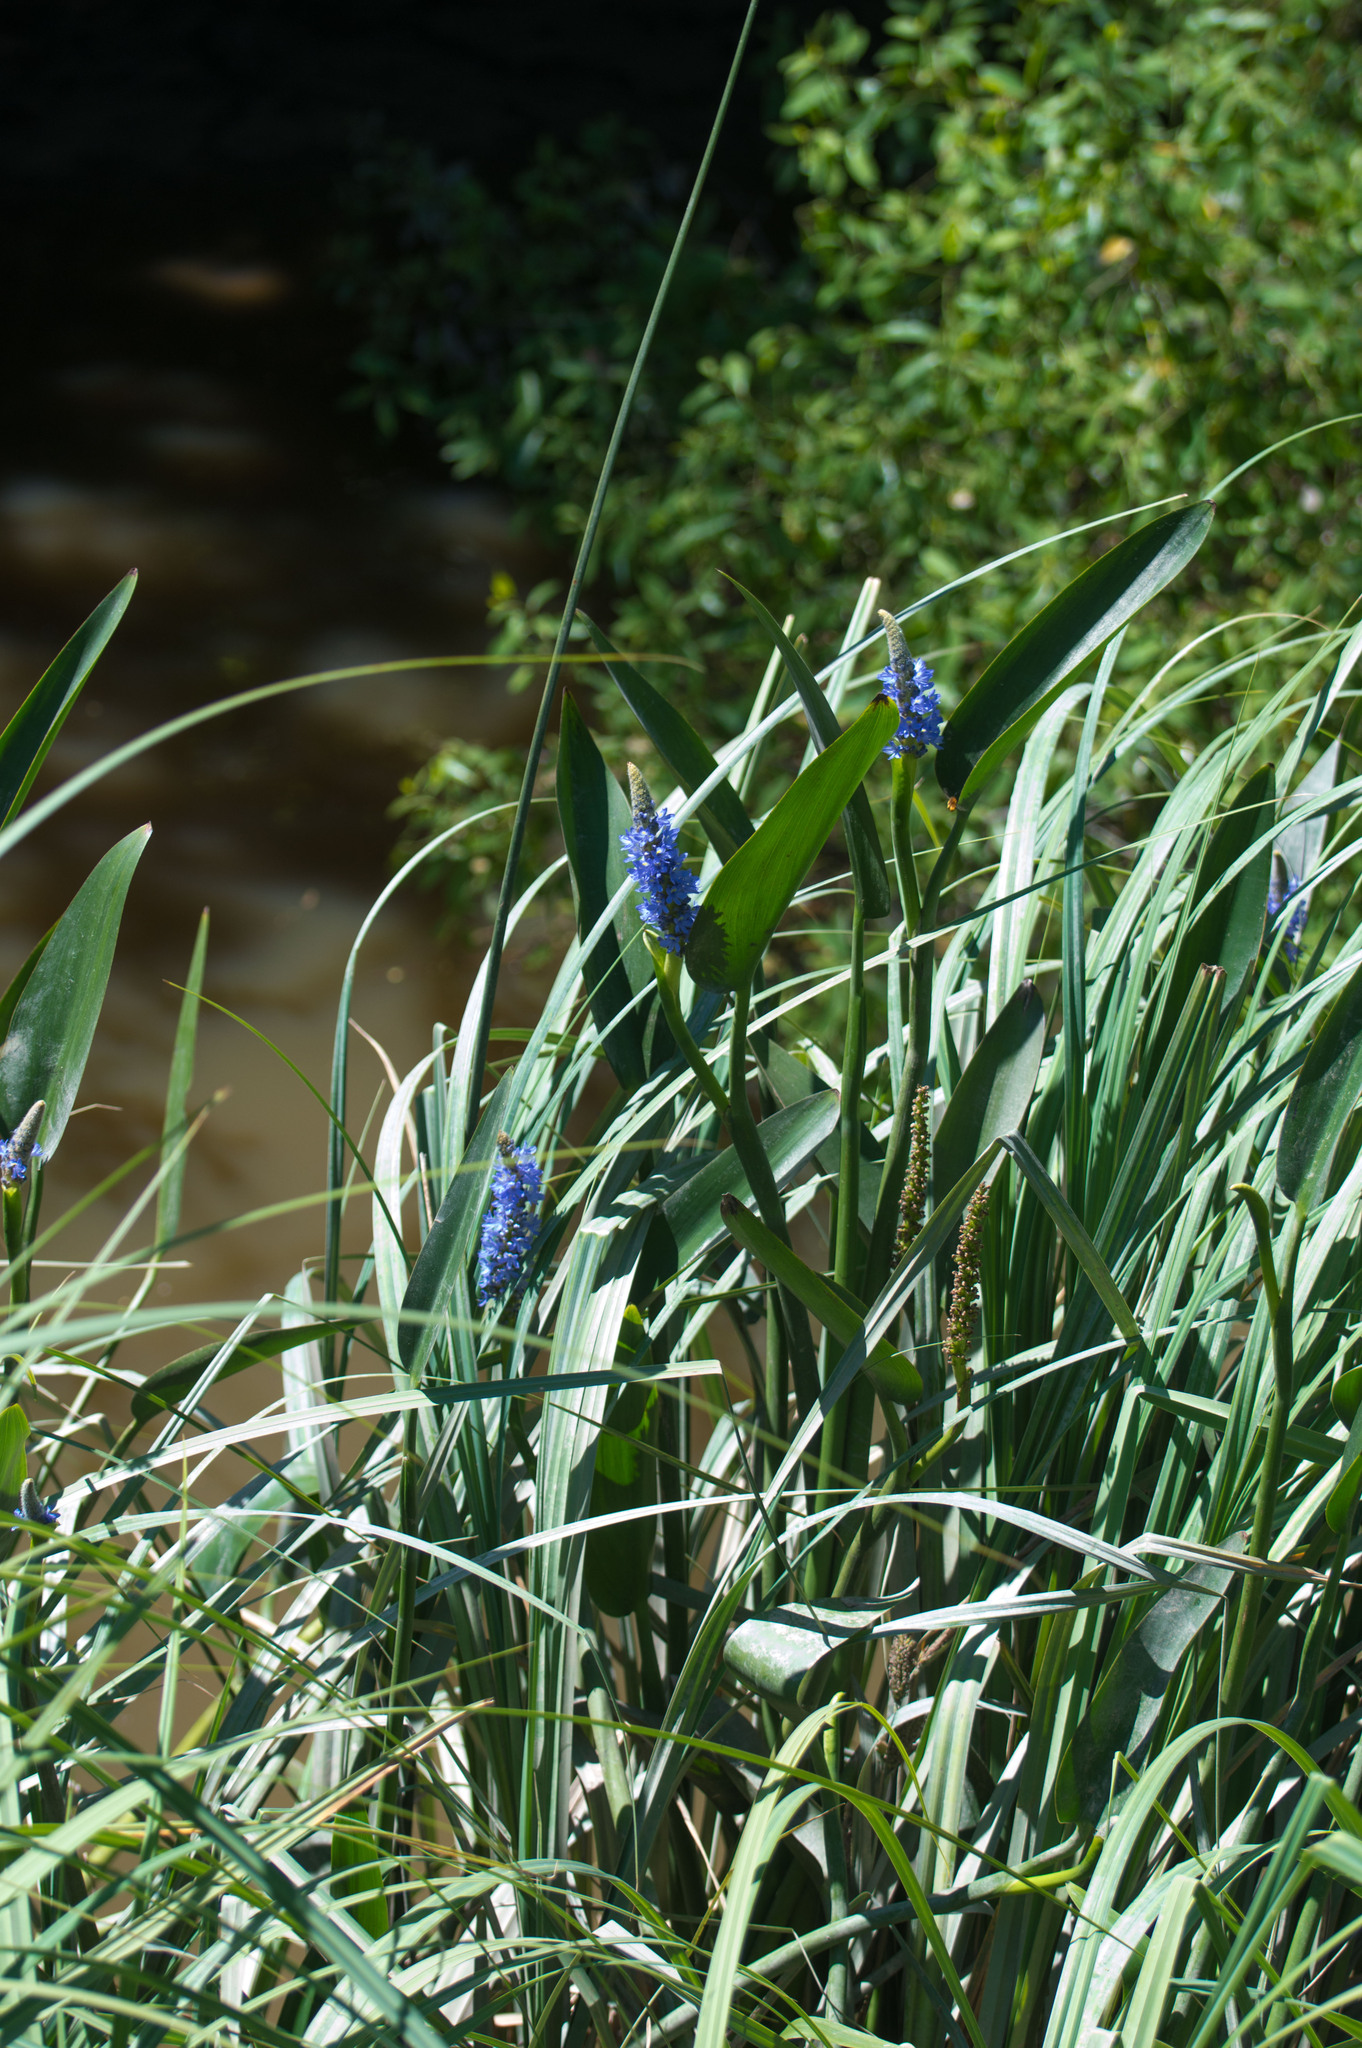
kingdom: Plantae
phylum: Tracheophyta
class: Liliopsida
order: Commelinales
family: Pontederiaceae
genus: Pontederia
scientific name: Pontederia cordata
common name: Pickerelweed
